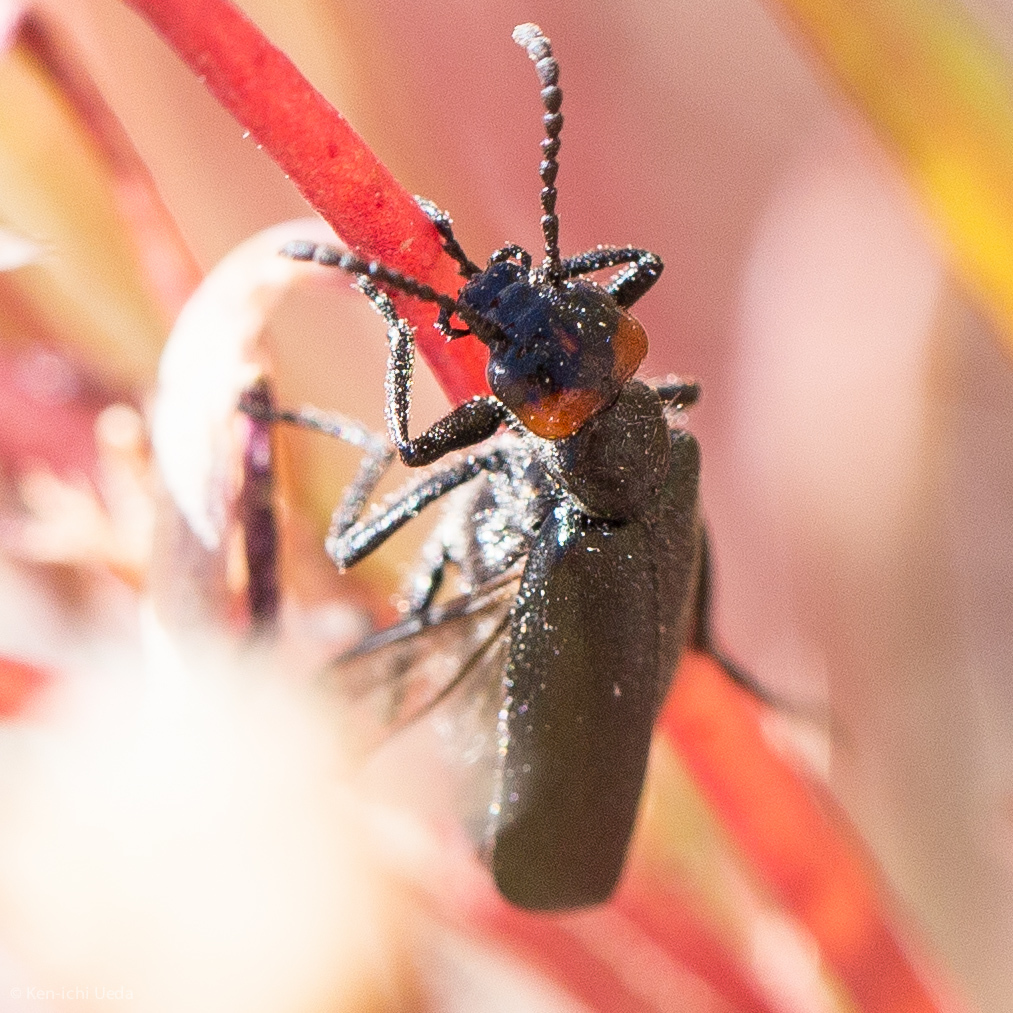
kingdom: Animalia
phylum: Arthropoda
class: Insecta
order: Coleoptera
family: Meloidae
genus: Lytta
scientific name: Lytta auriculata
